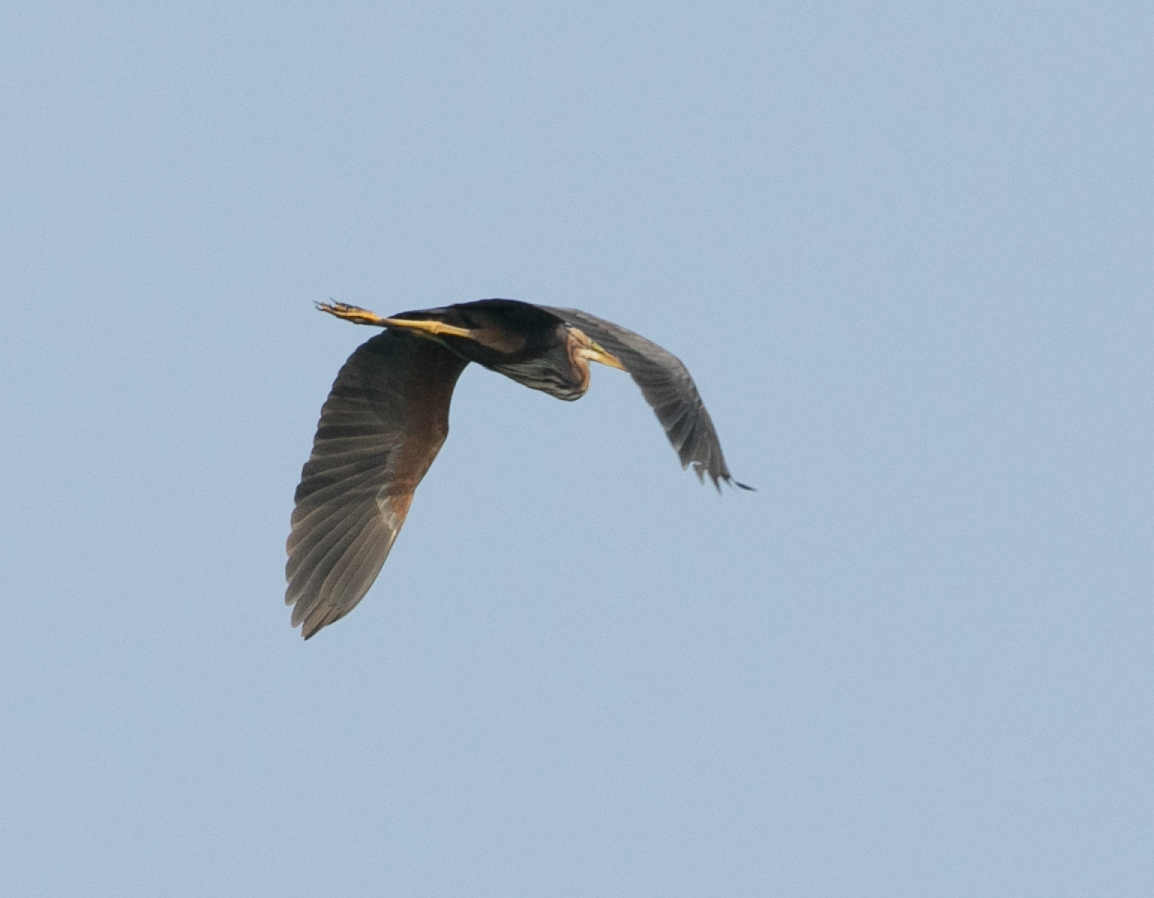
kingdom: Animalia
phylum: Chordata
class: Aves
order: Pelecaniformes
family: Ardeidae
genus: Ardea
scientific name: Ardea purpurea
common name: Purple heron
